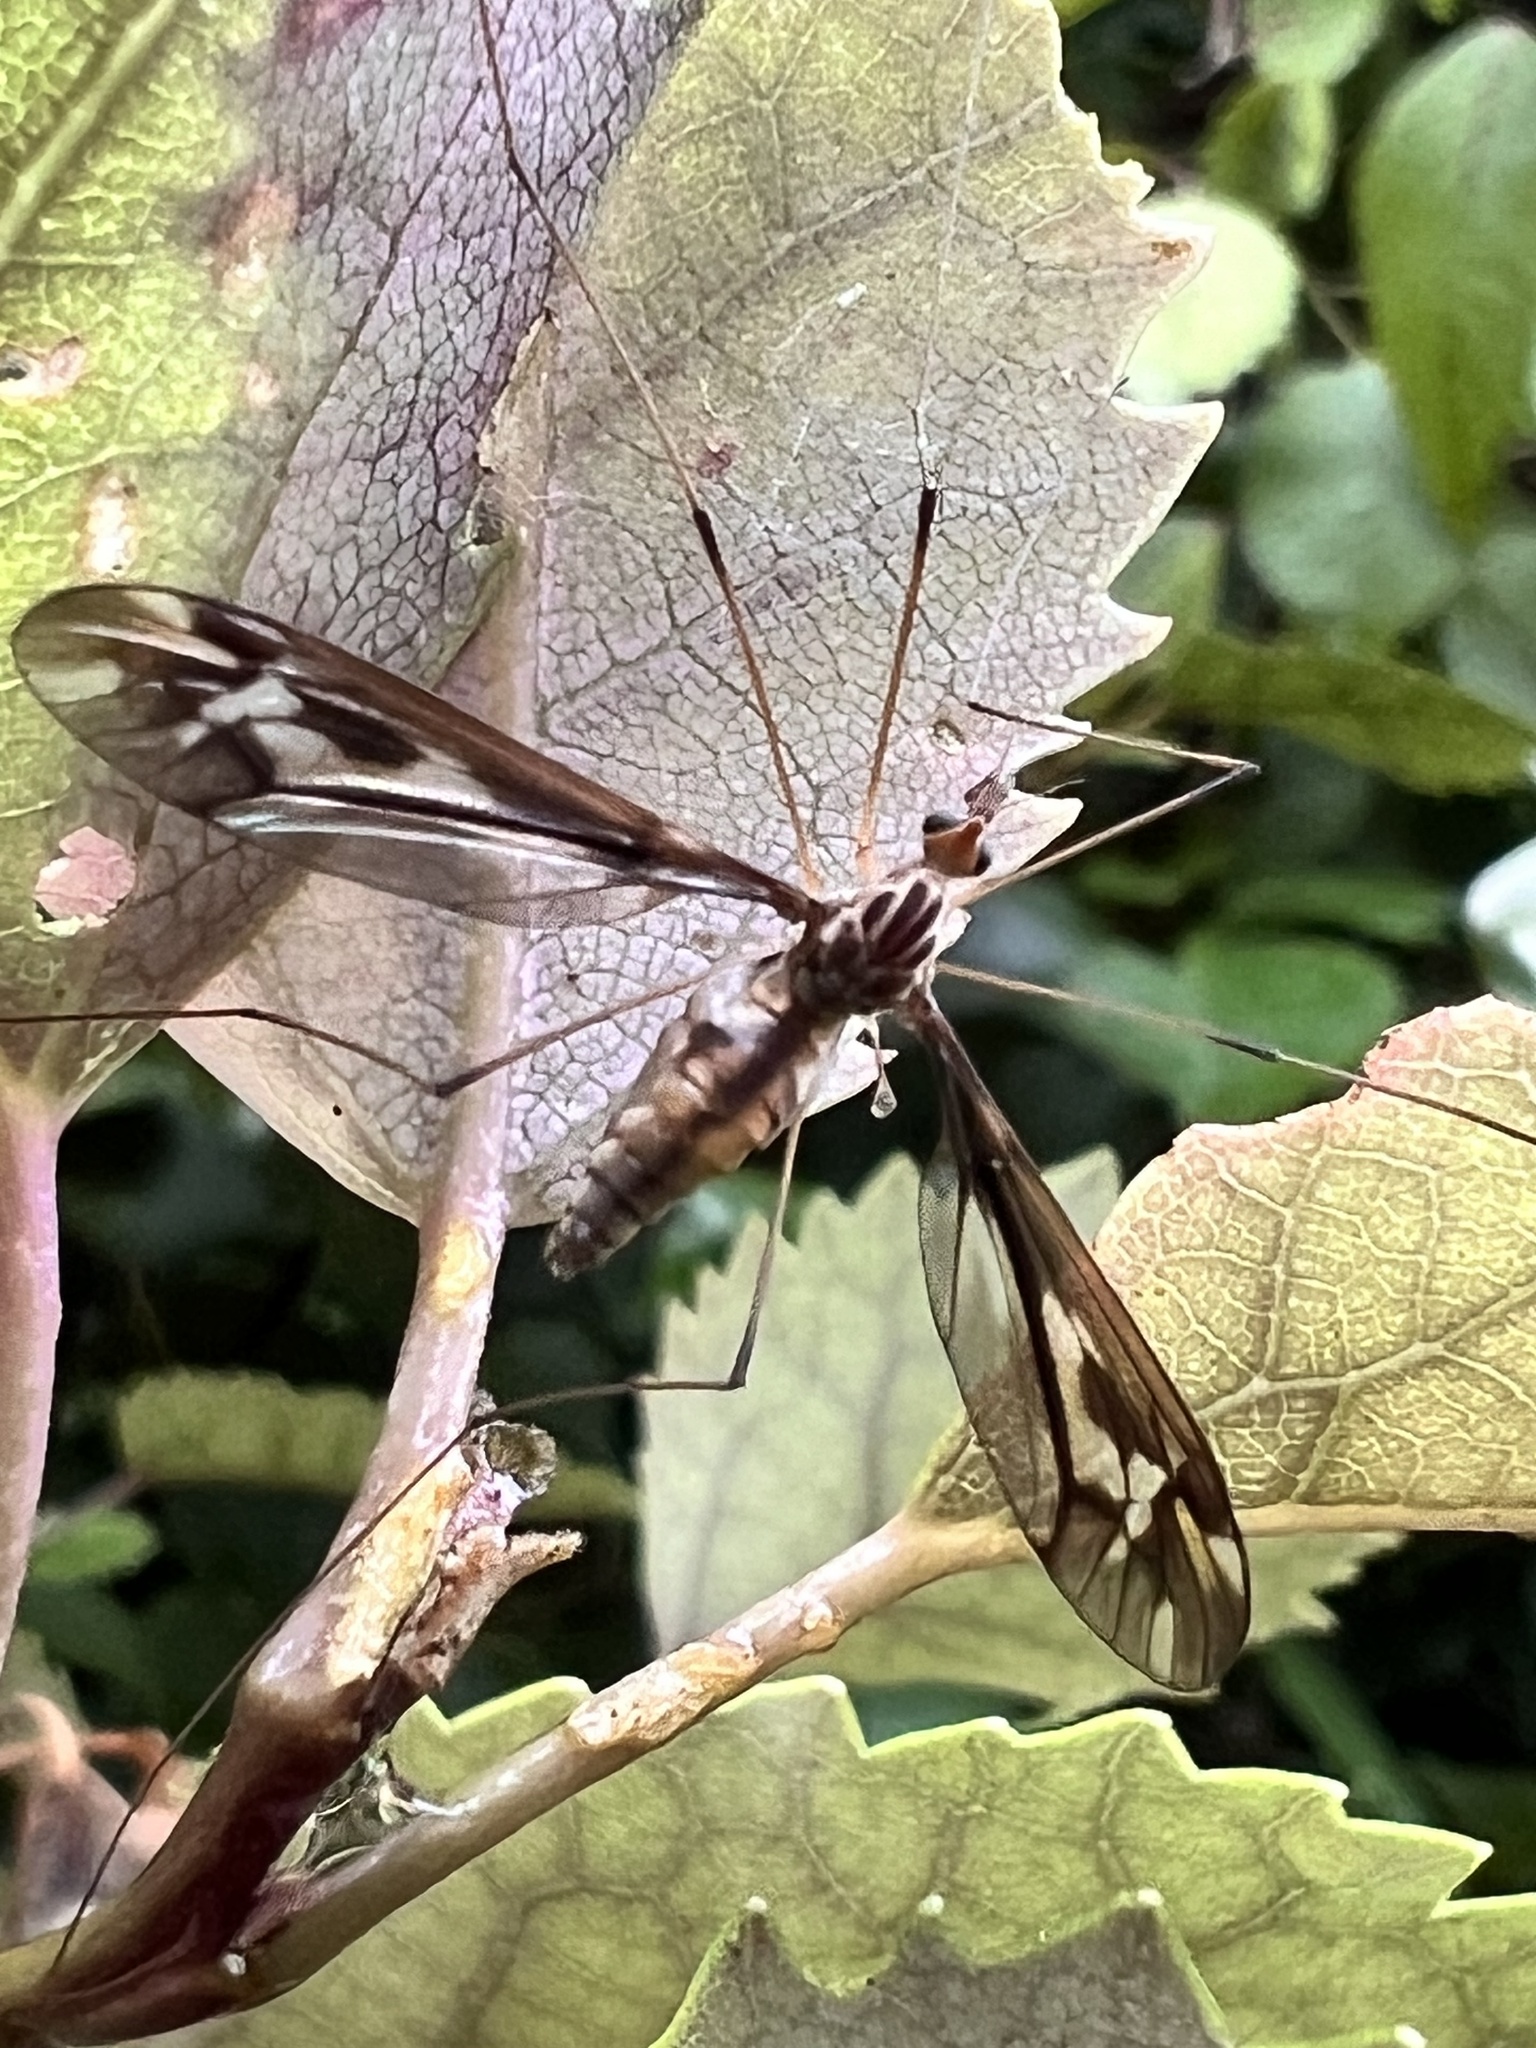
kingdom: Animalia
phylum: Arthropoda
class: Insecta
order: Diptera
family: Tipulidae
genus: Leptotarsus
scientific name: Leptotarsus huttoni
